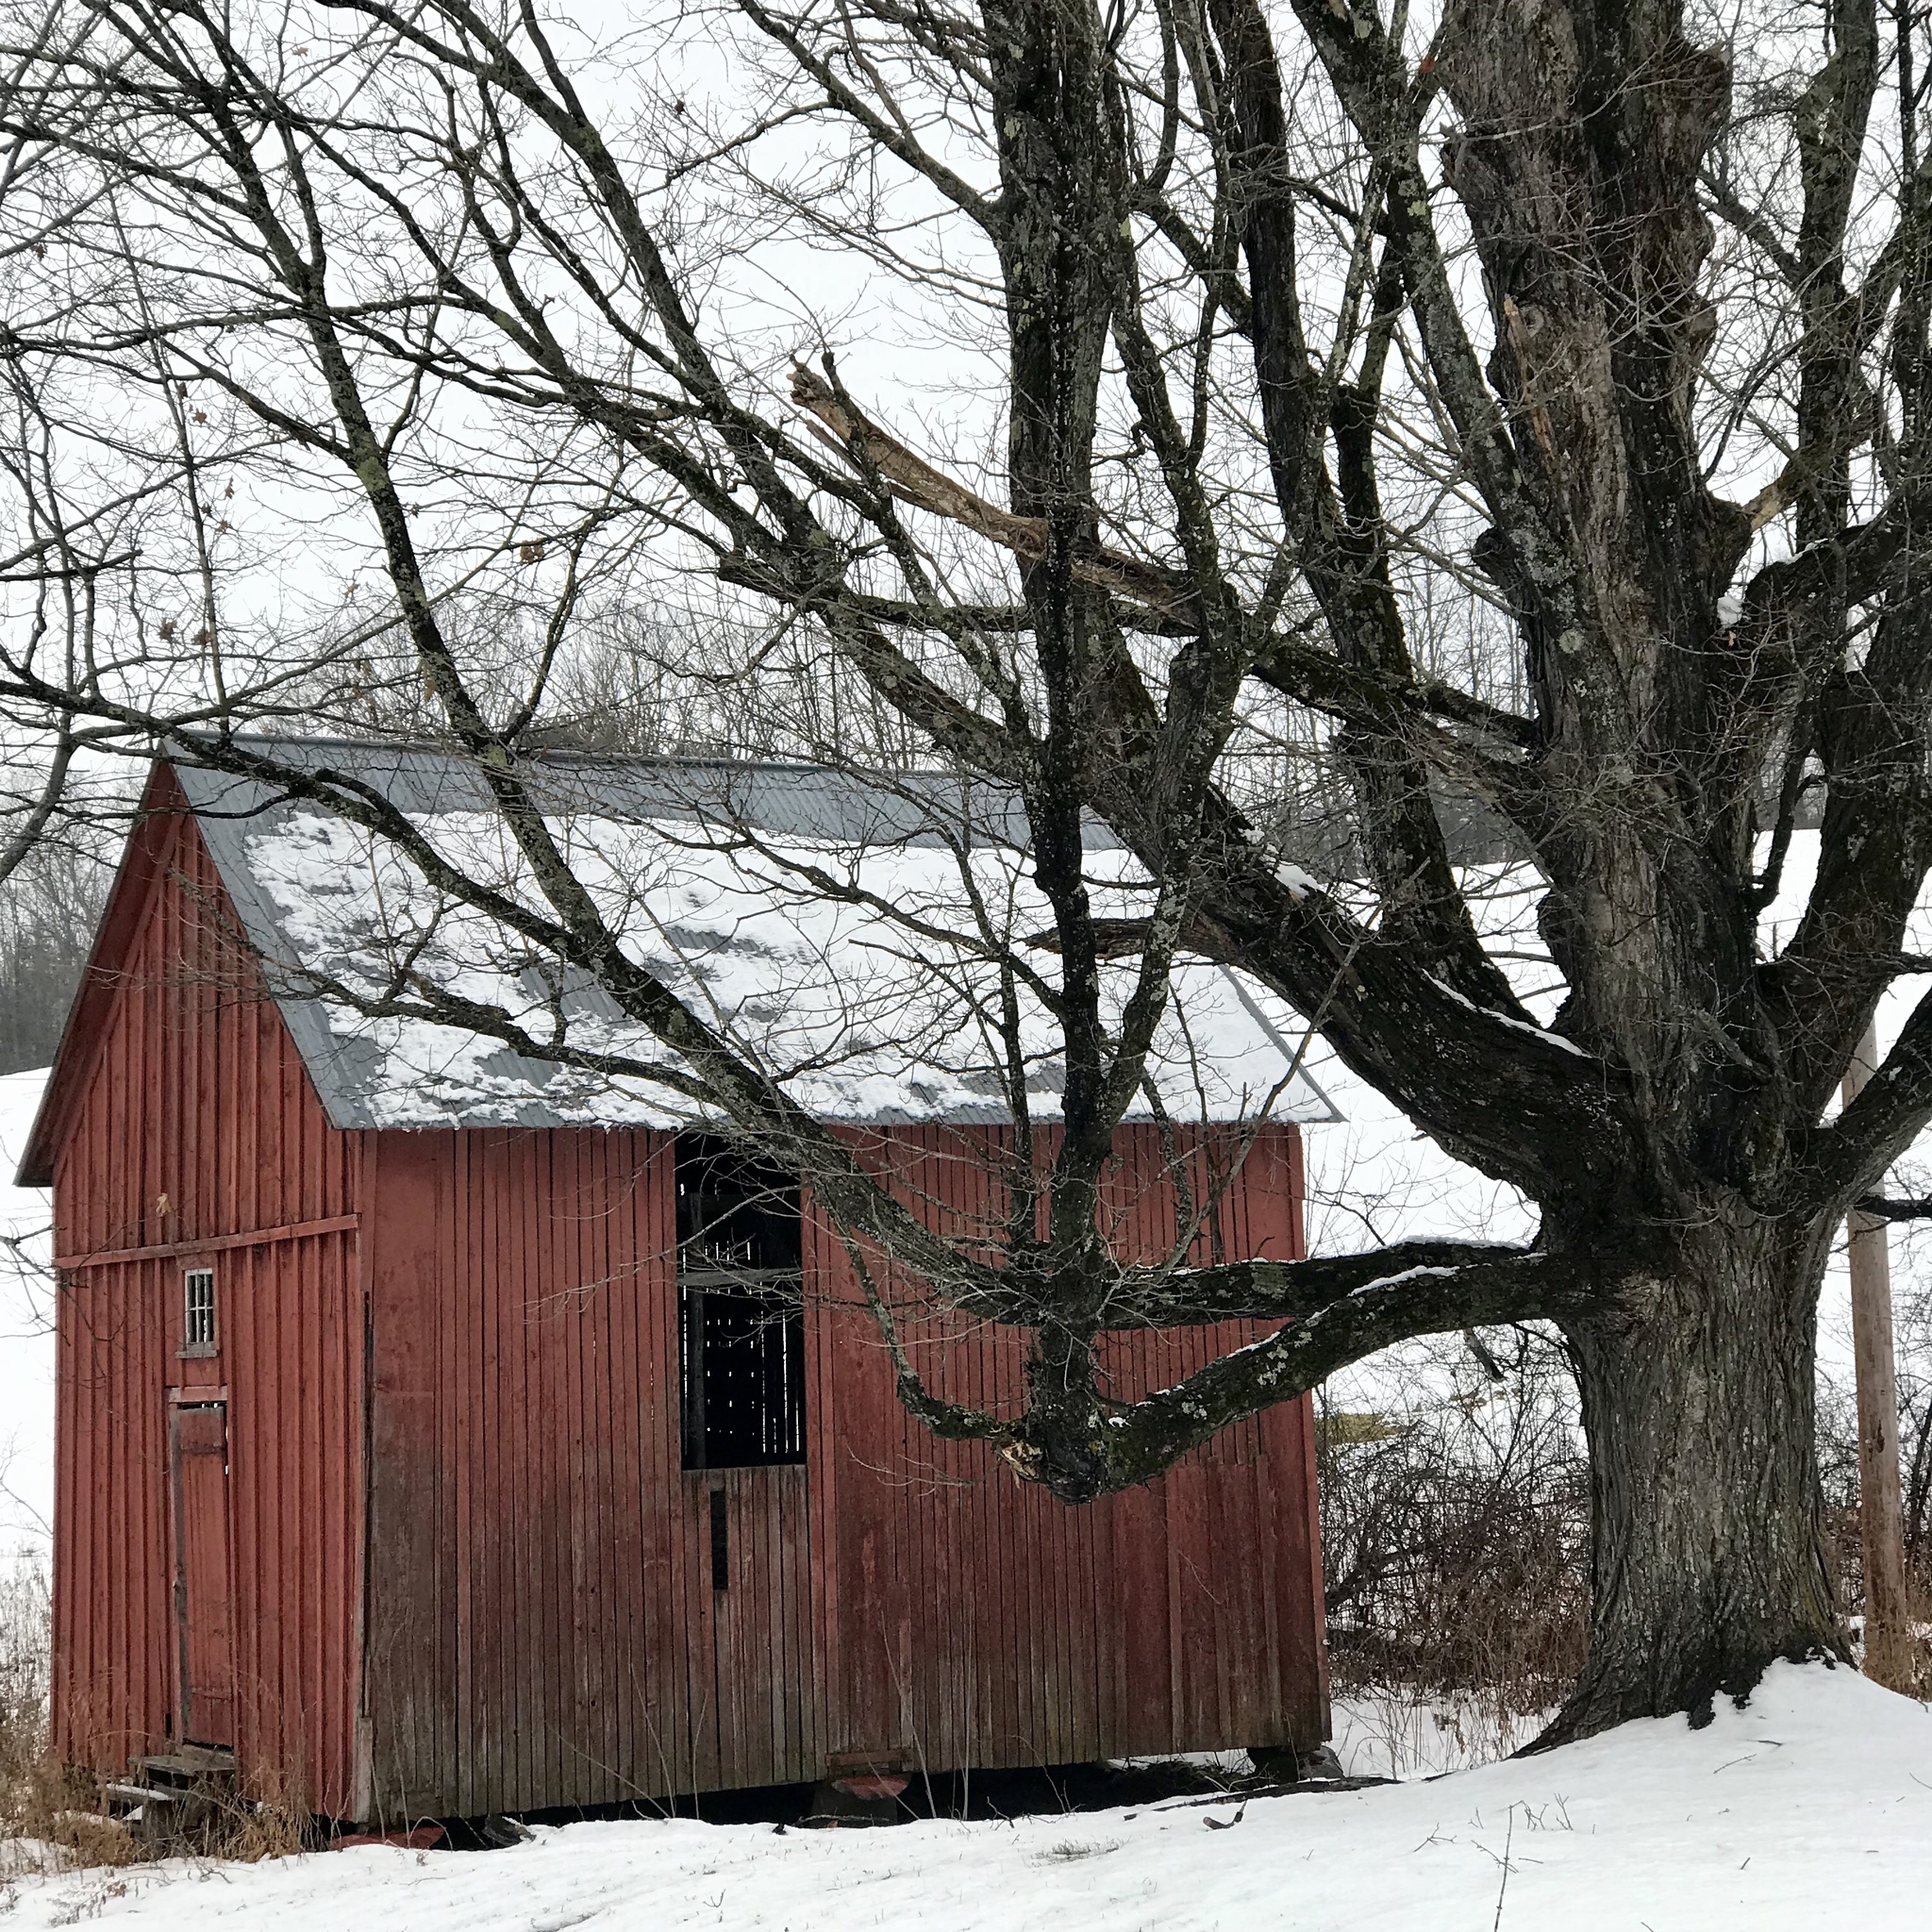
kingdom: Plantae
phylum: Tracheophyta
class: Magnoliopsida
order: Sapindales
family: Sapindaceae
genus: Acer
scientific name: Acer saccharum
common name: Sugar maple
